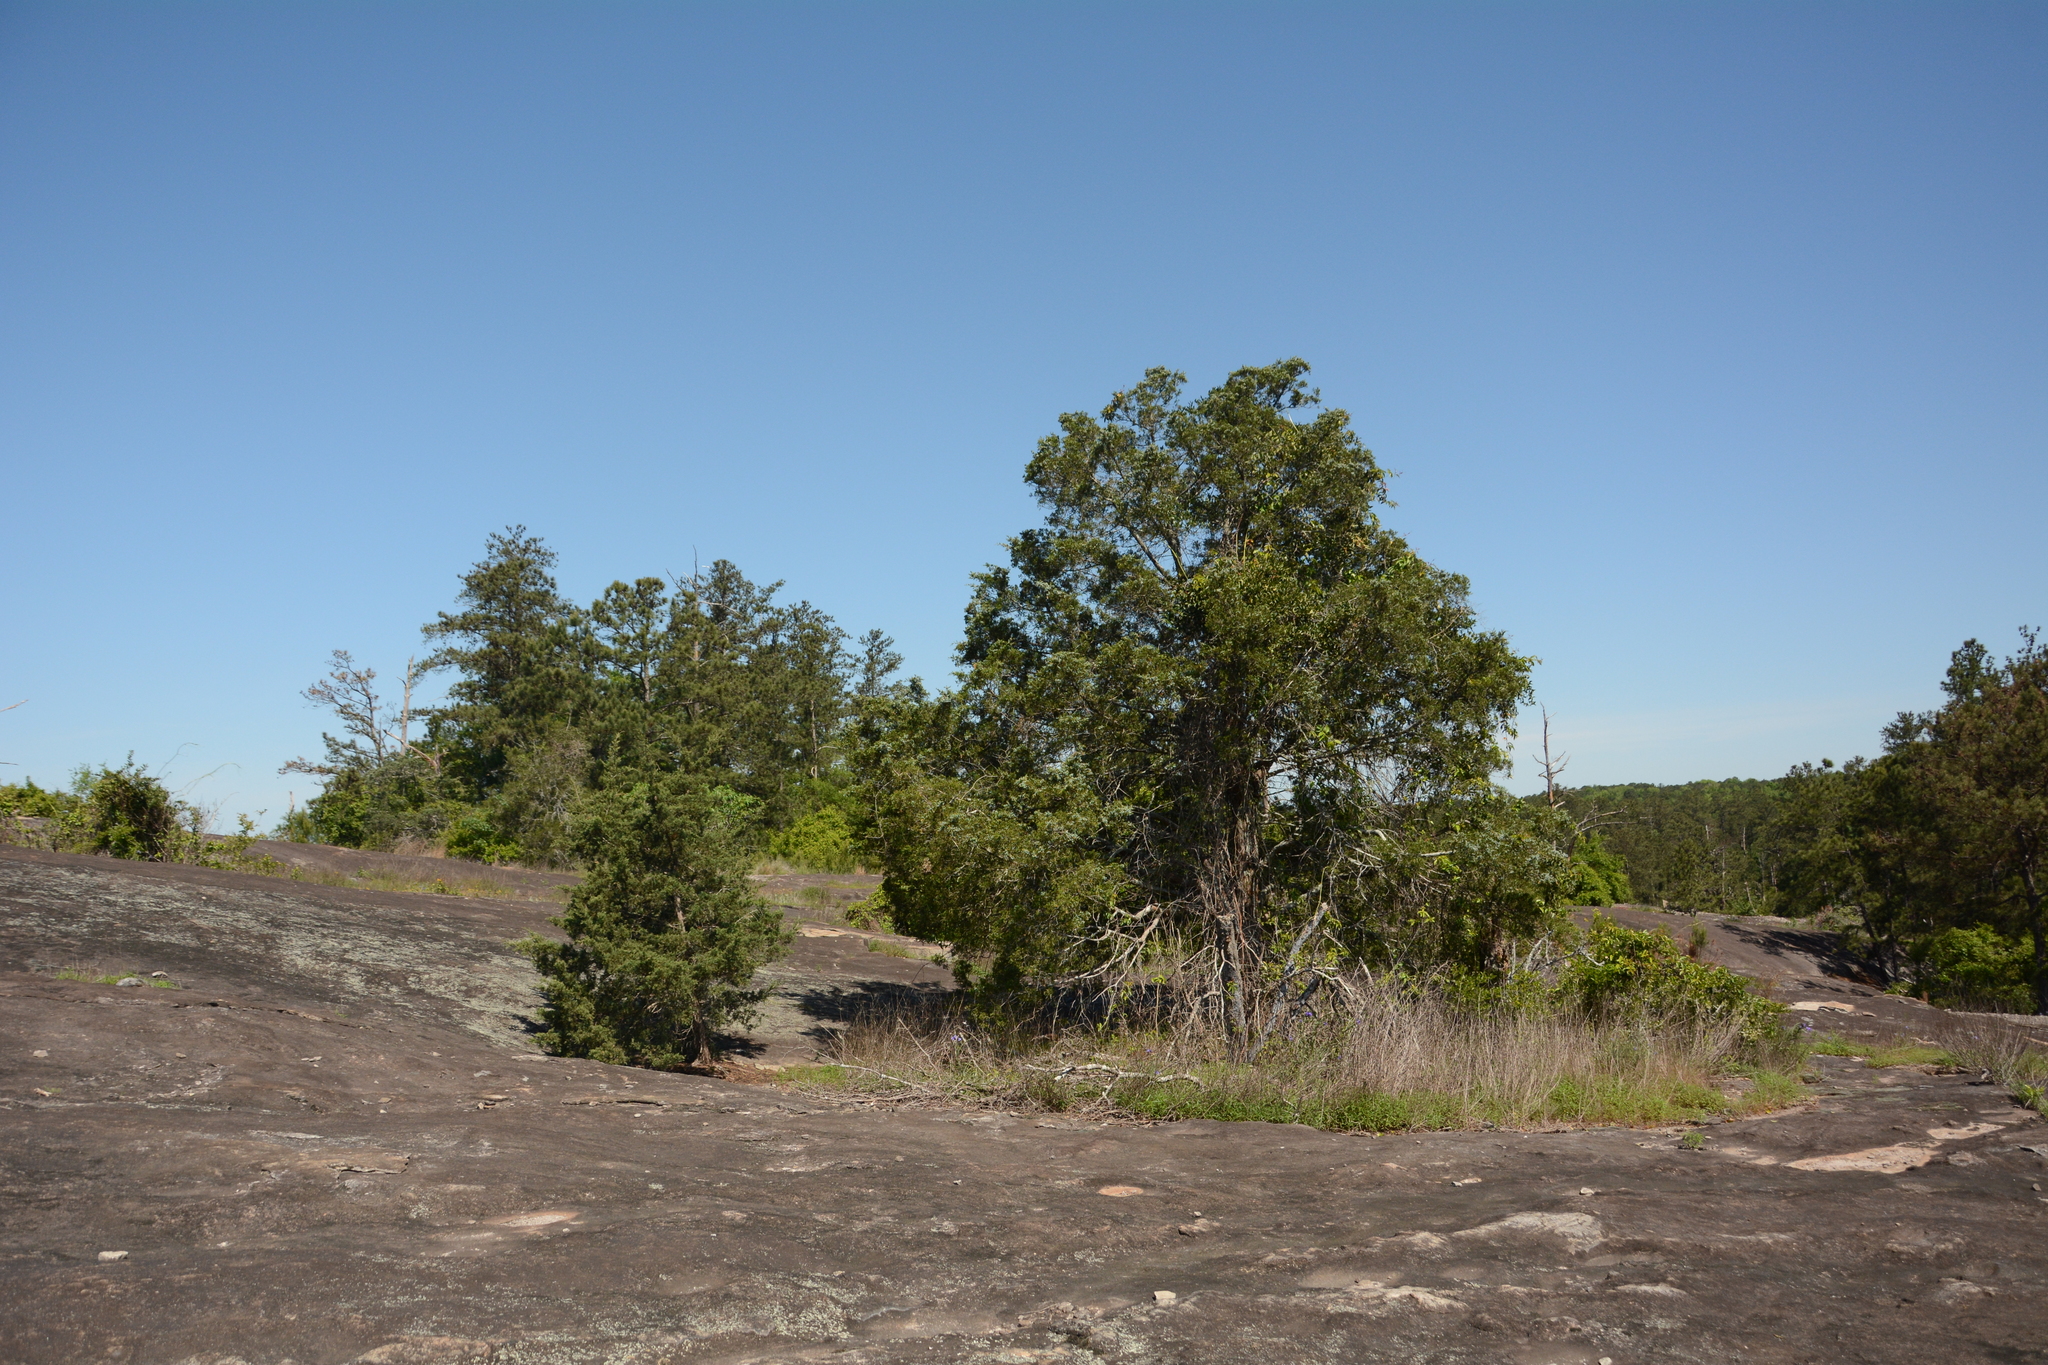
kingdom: Plantae
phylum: Tracheophyta
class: Pinopsida
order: Pinales
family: Cupressaceae
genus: Juniperus
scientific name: Juniperus virginiana
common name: Red juniper
